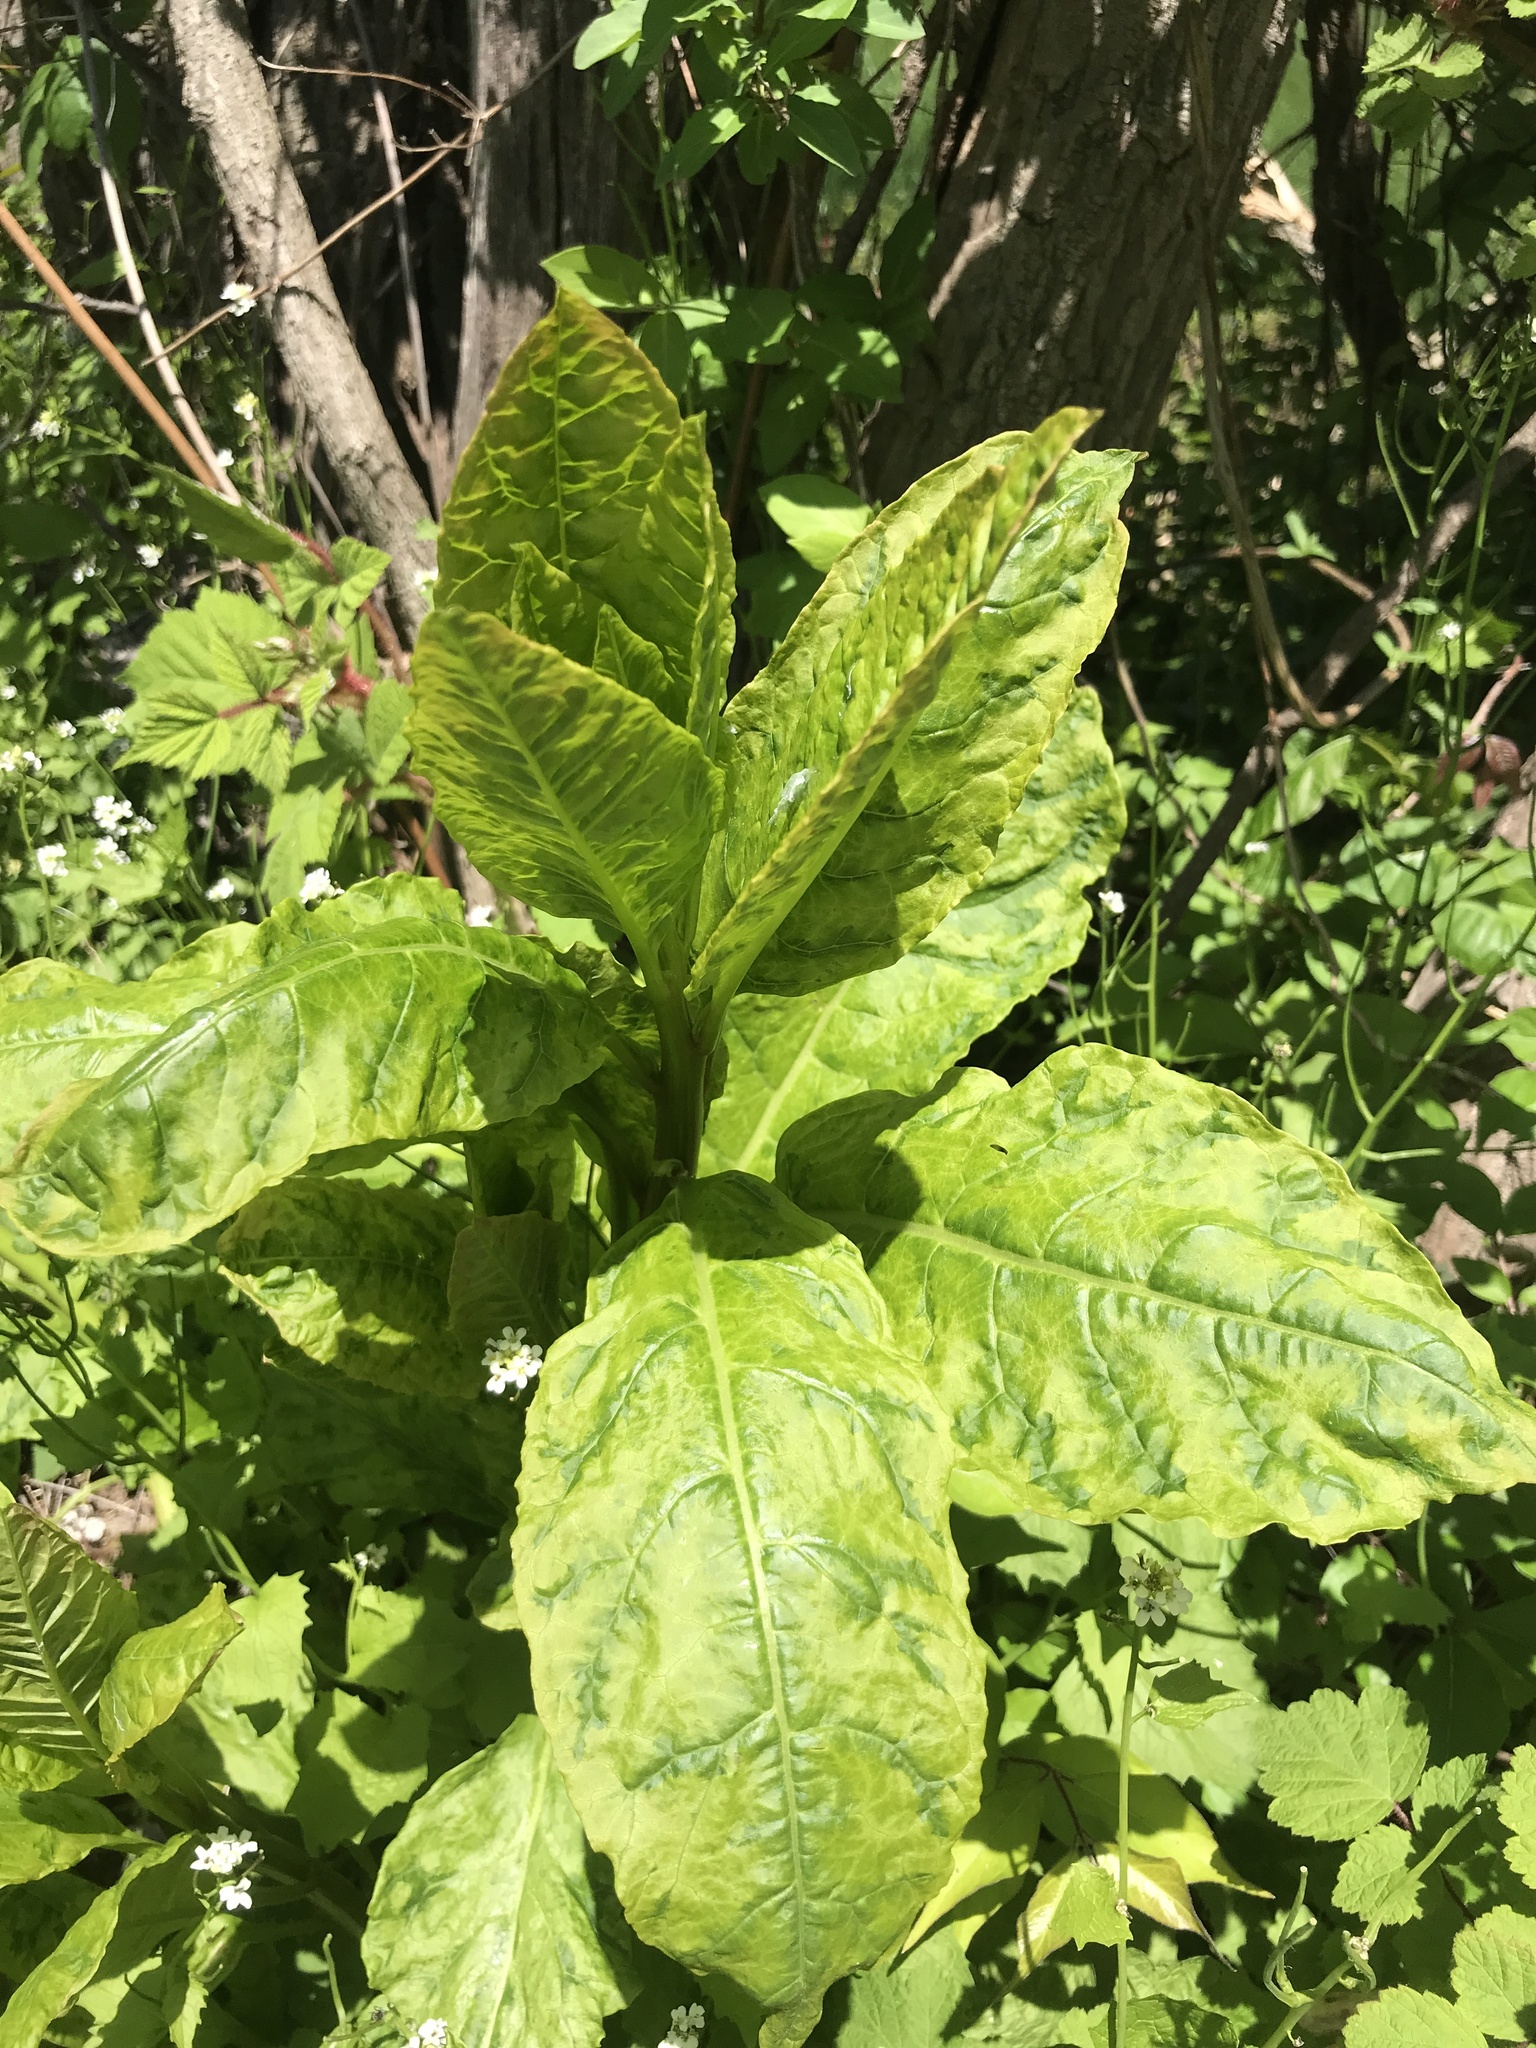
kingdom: Viruses
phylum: Pisuviricota
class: Stelpaviricetes
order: Patatavirales
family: Potyviridae
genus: Potyvirus
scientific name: Potyvirus Pokeweed mosaic virus
